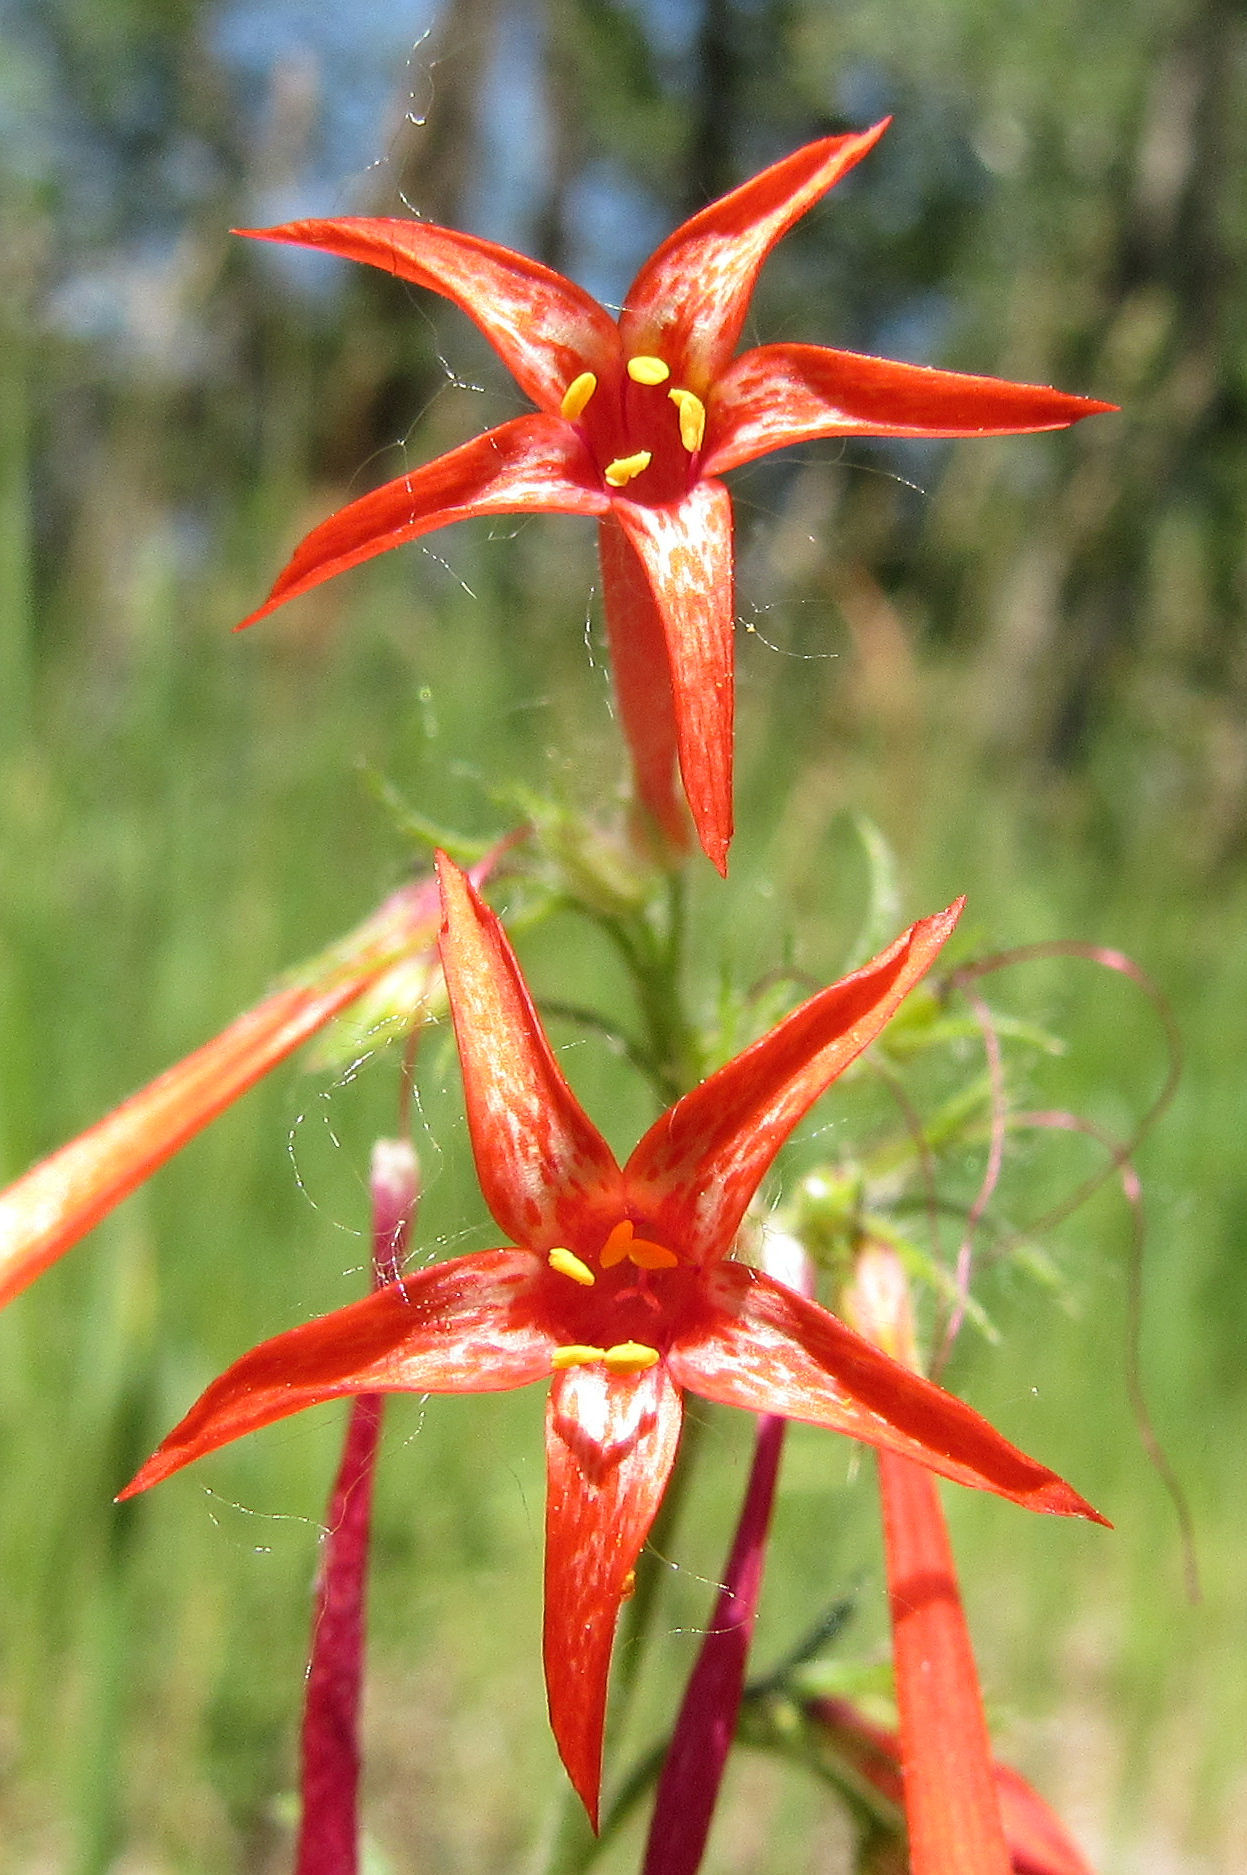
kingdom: Plantae
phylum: Tracheophyta
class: Magnoliopsida
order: Ericales
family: Polemoniaceae
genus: Ipomopsis
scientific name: Ipomopsis aggregata
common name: Scarlet gilia
